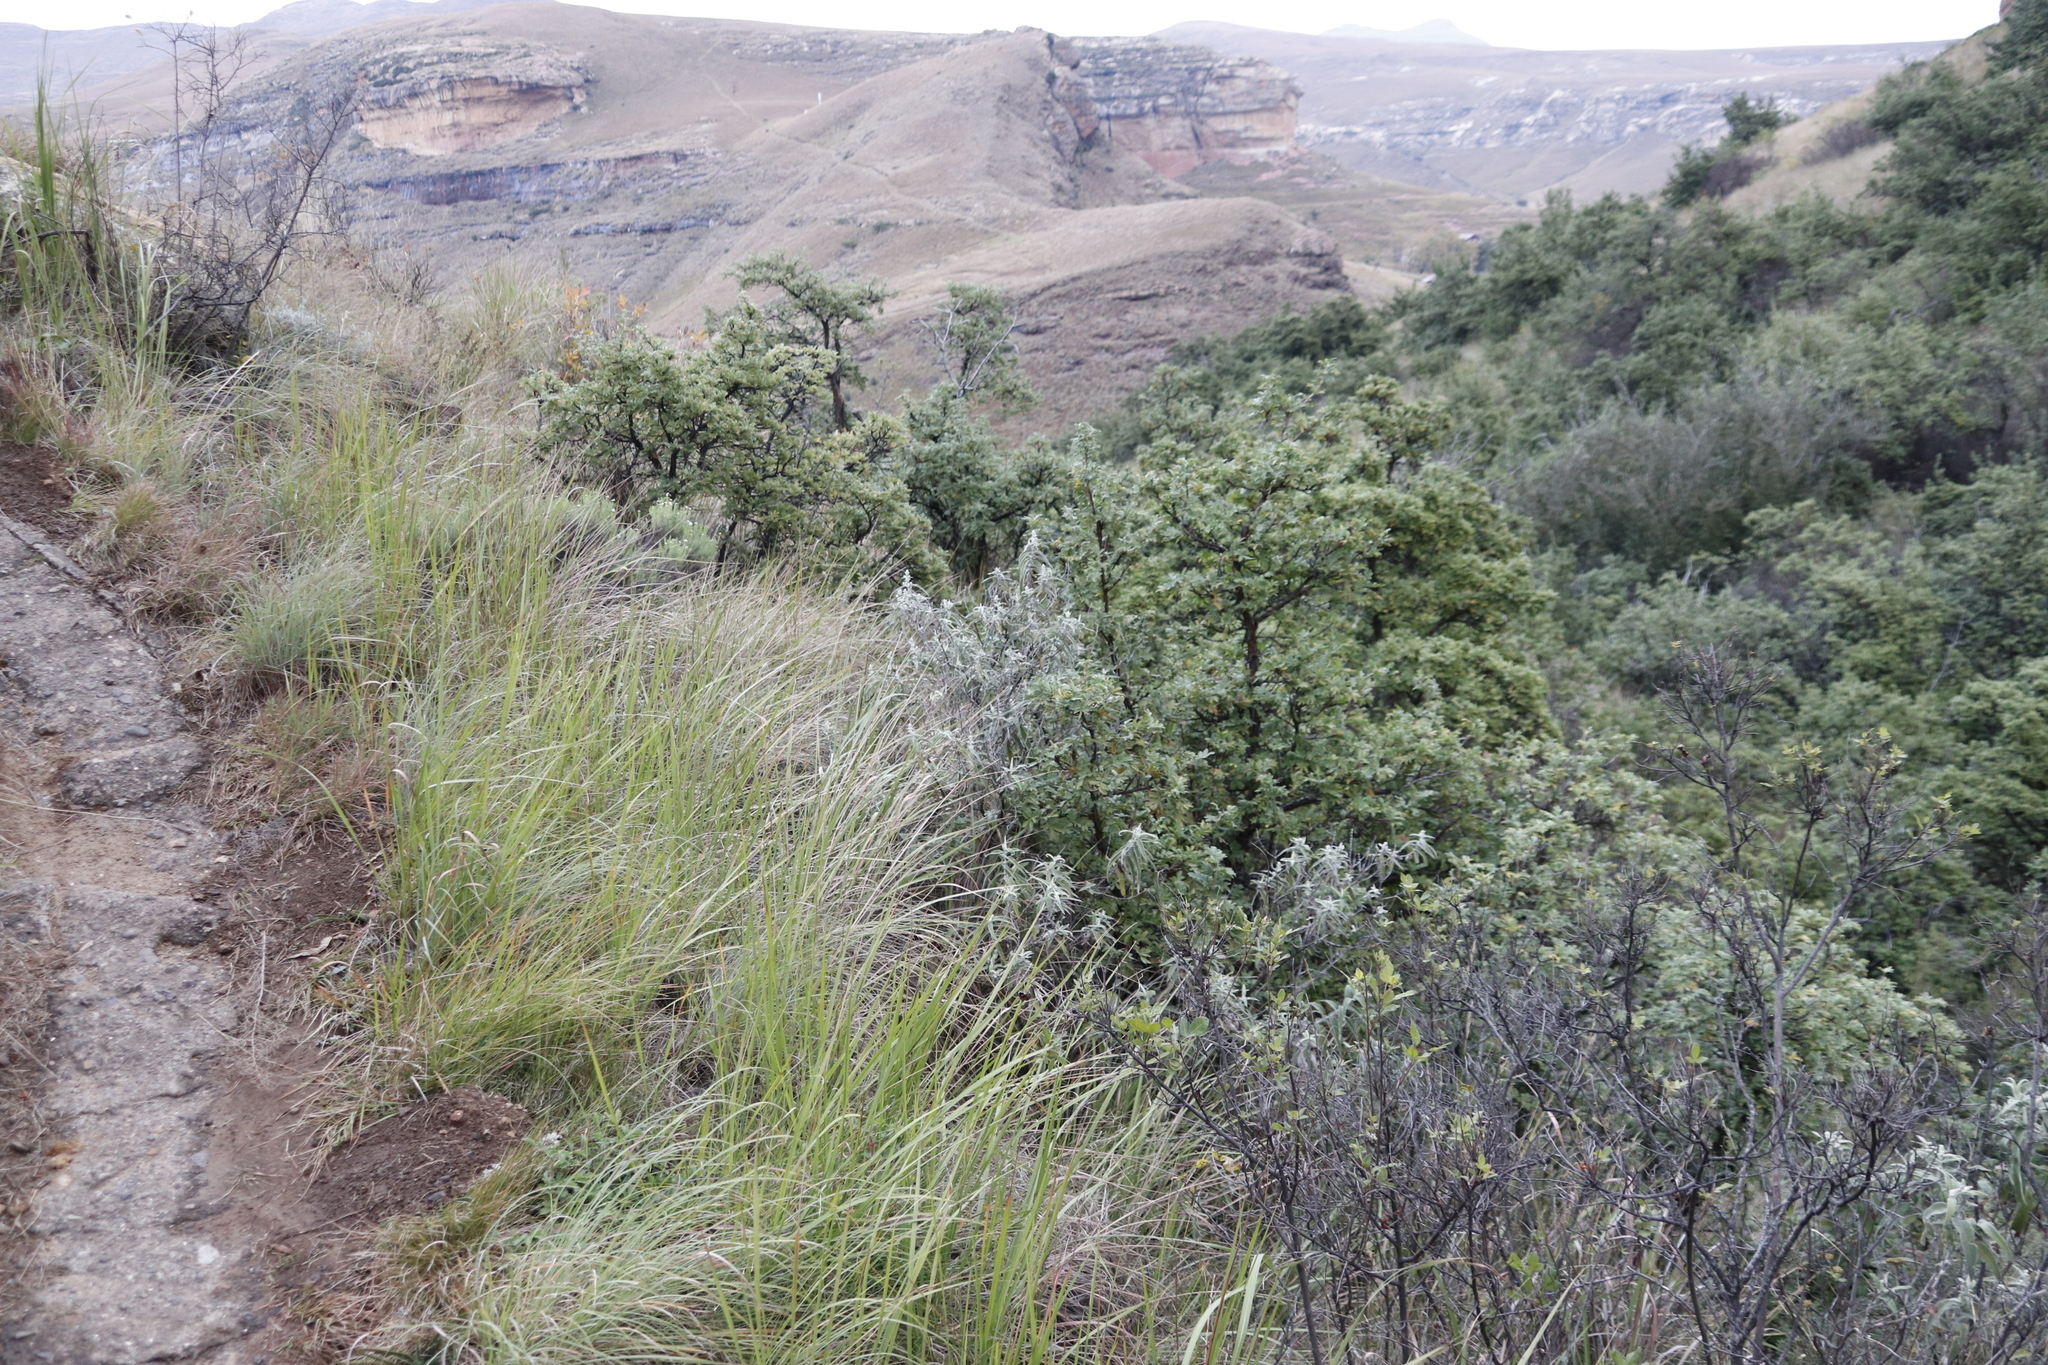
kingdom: Plantae
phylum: Tracheophyta
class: Magnoliopsida
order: Rosales
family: Rosaceae
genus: Leucosidea
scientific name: Leucosidea sericea
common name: Oldwood
